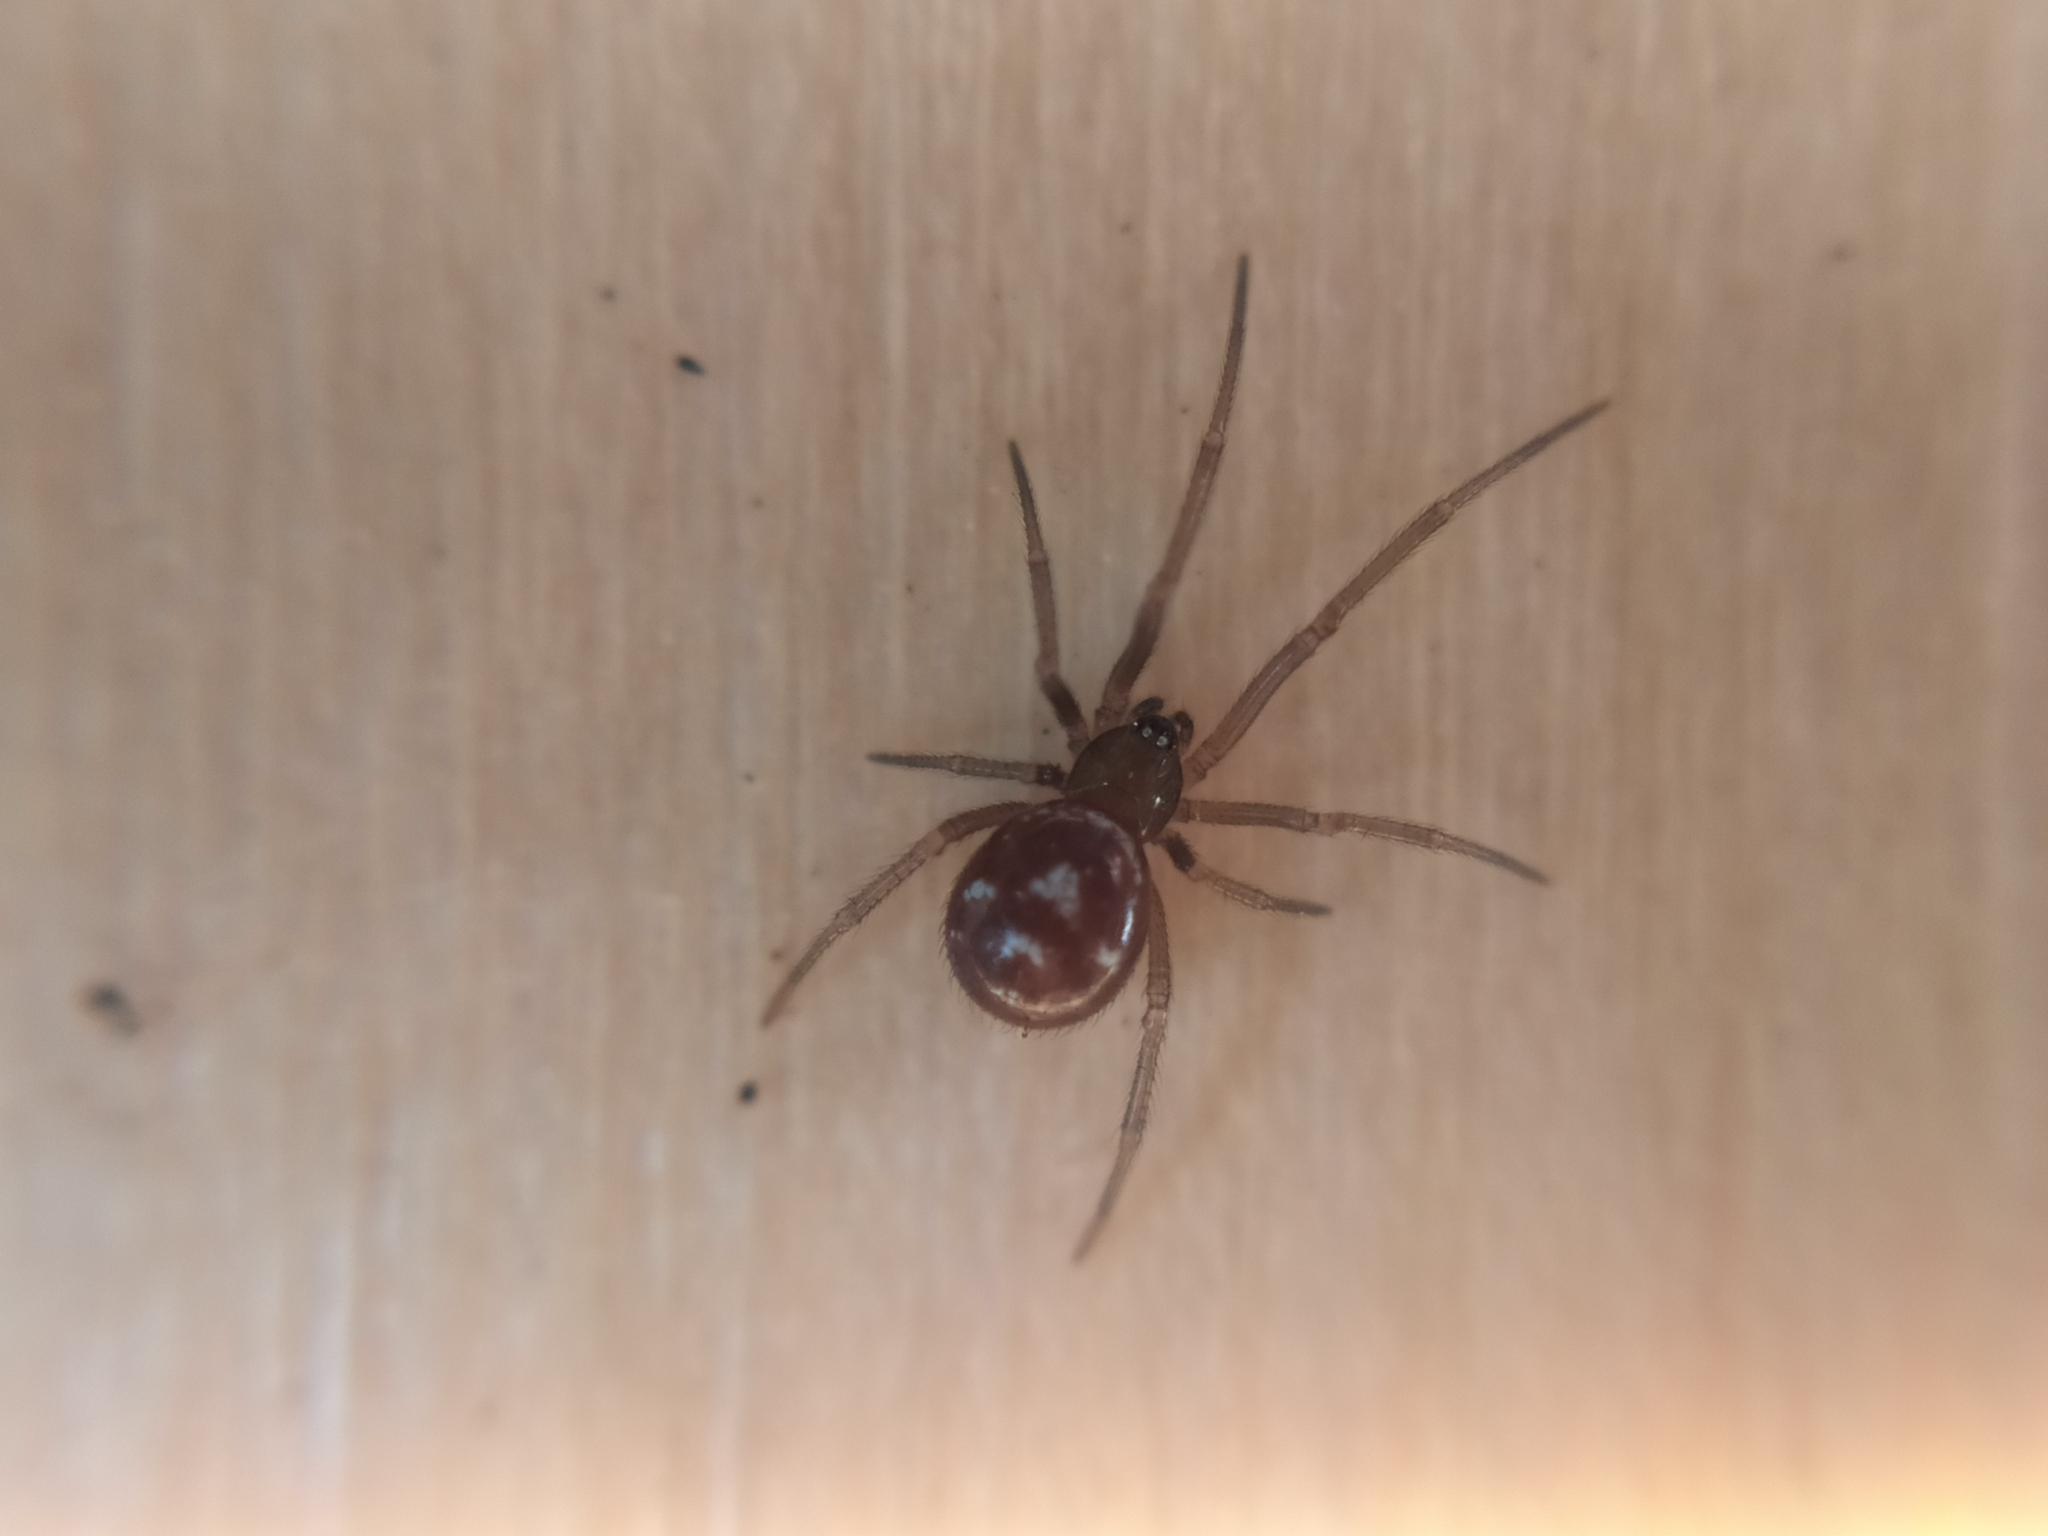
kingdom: Animalia
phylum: Arthropoda
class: Arachnida
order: Araneae
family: Theridiidae
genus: Steatoda
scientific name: Steatoda grossa
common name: False black widow
